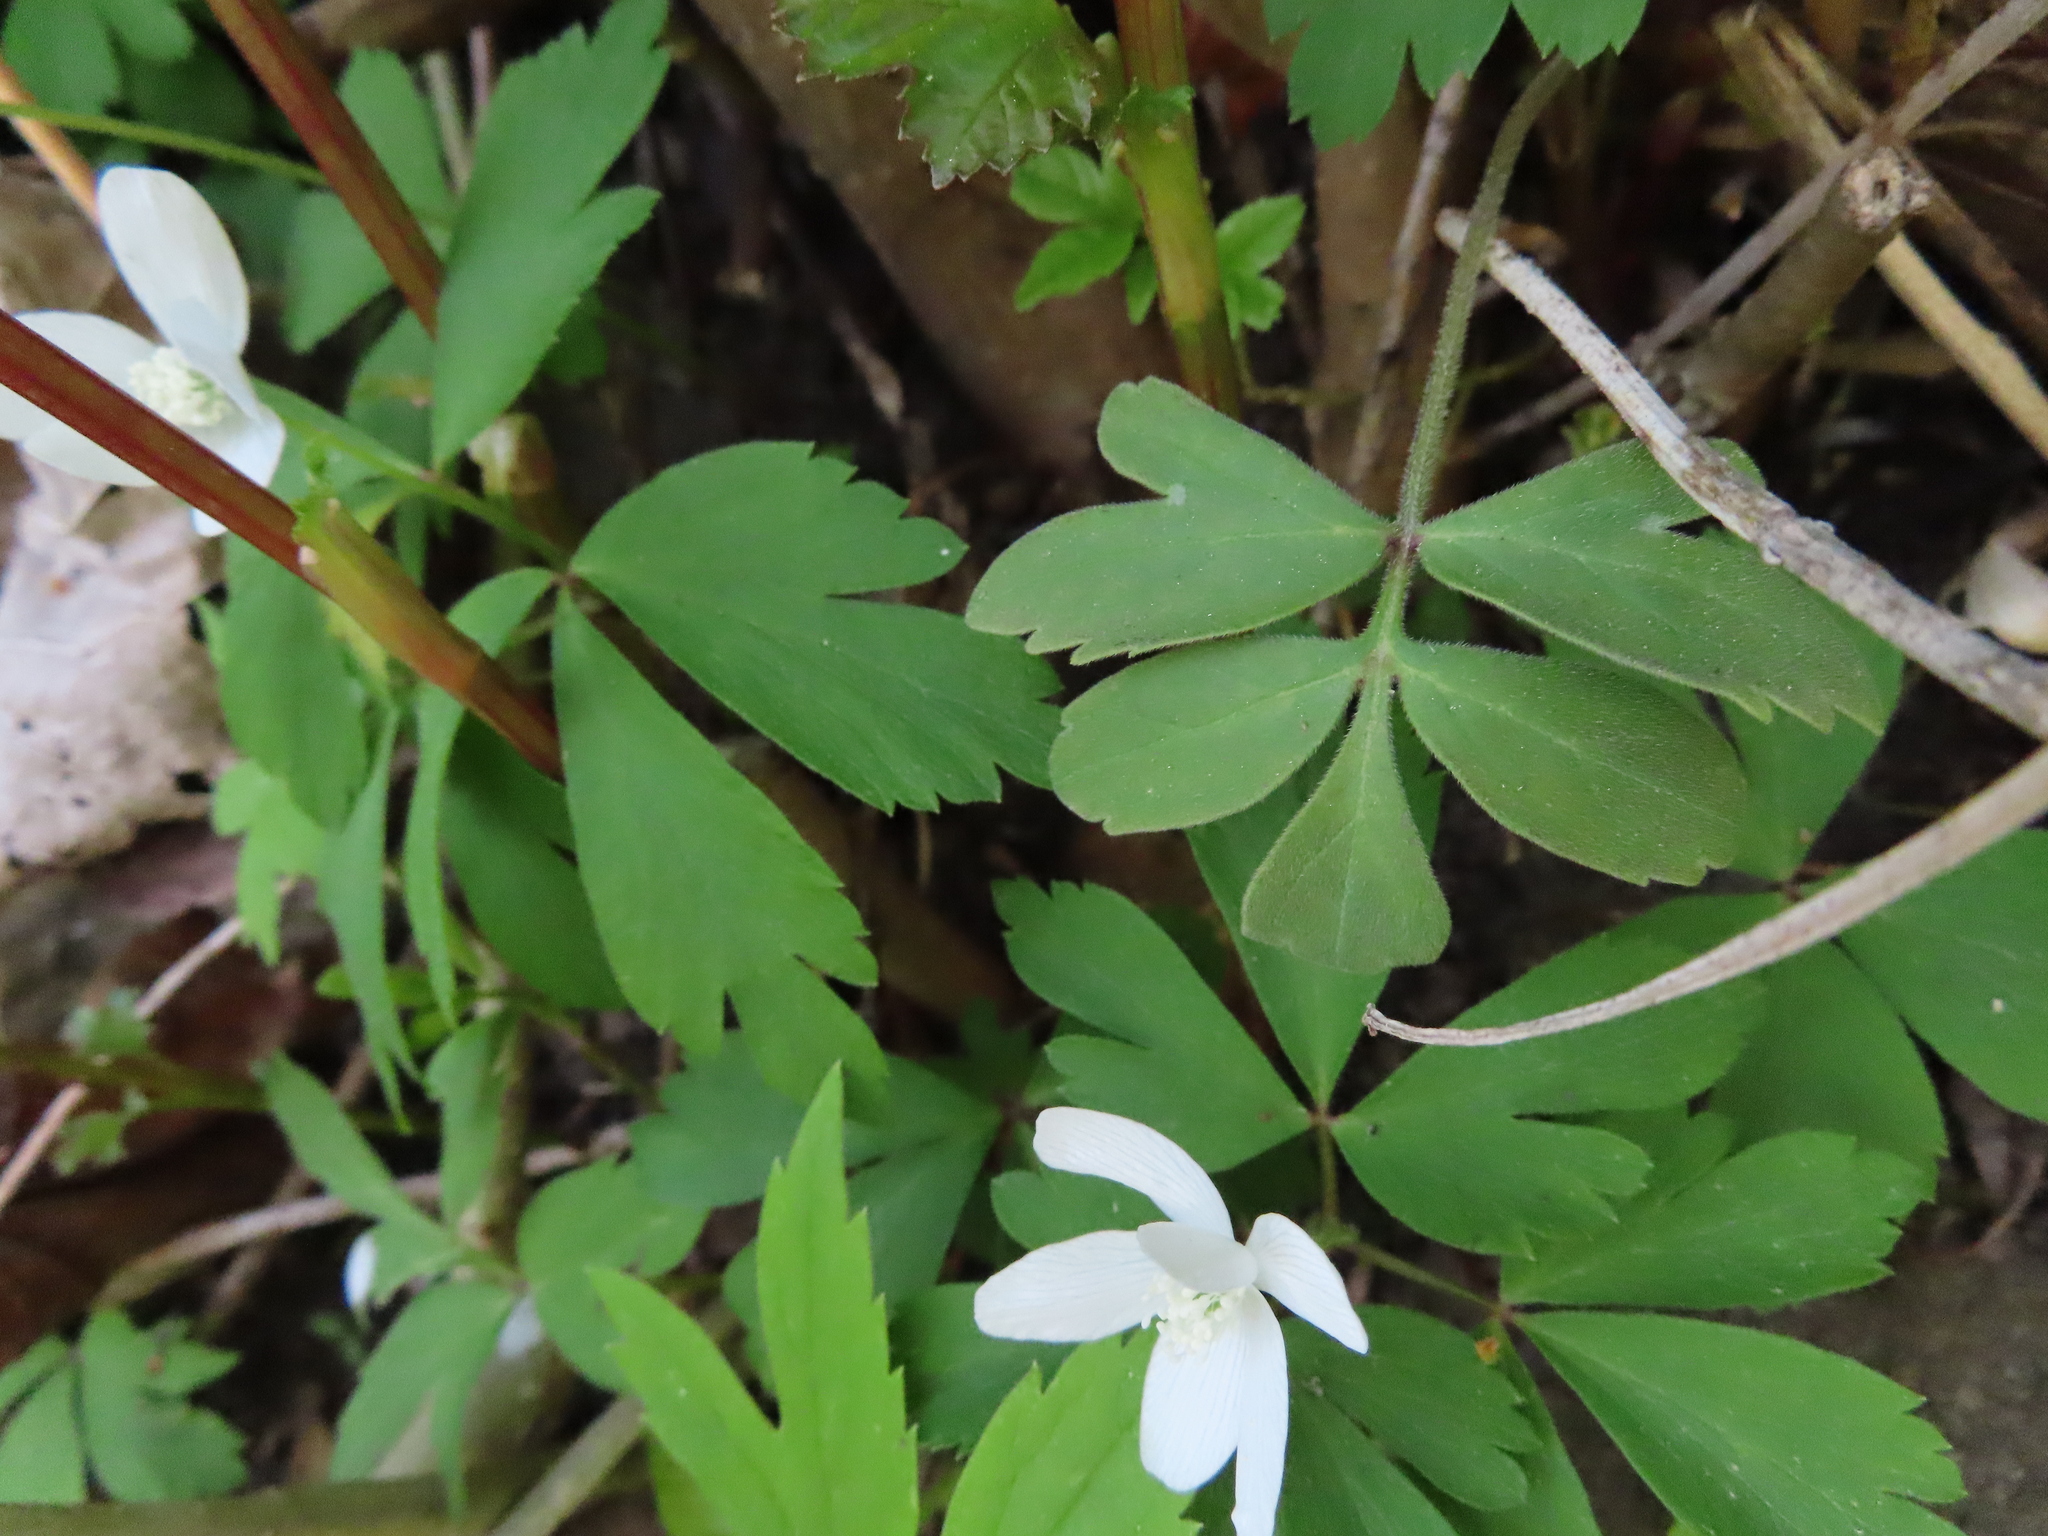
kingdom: Plantae
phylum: Tracheophyta
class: Magnoliopsida
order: Ranunculales
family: Ranunculaceae
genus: Anemone
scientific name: Anemone quinquefolia
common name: Wood anemone
